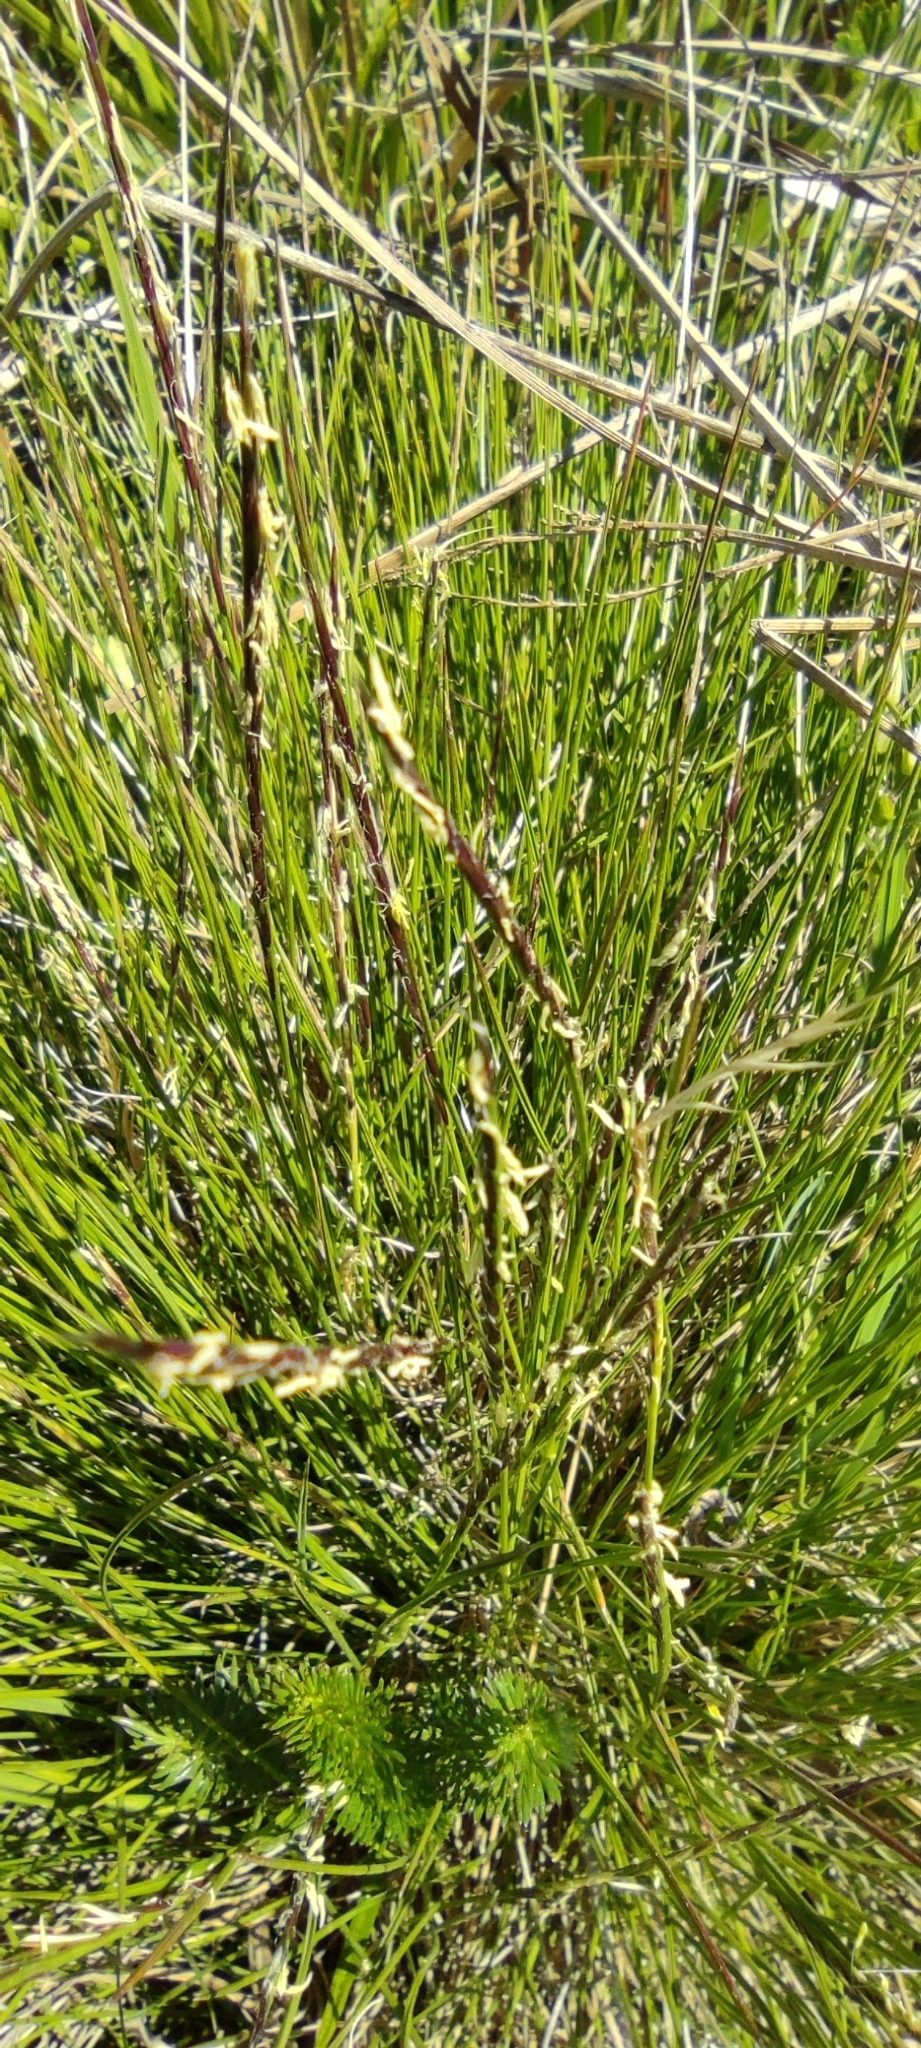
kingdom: Plantae
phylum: Tracheophyta
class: Liliopsida
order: Poales
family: Poaceae
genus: Nardus
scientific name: Nardus stricta
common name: Mat-grass
